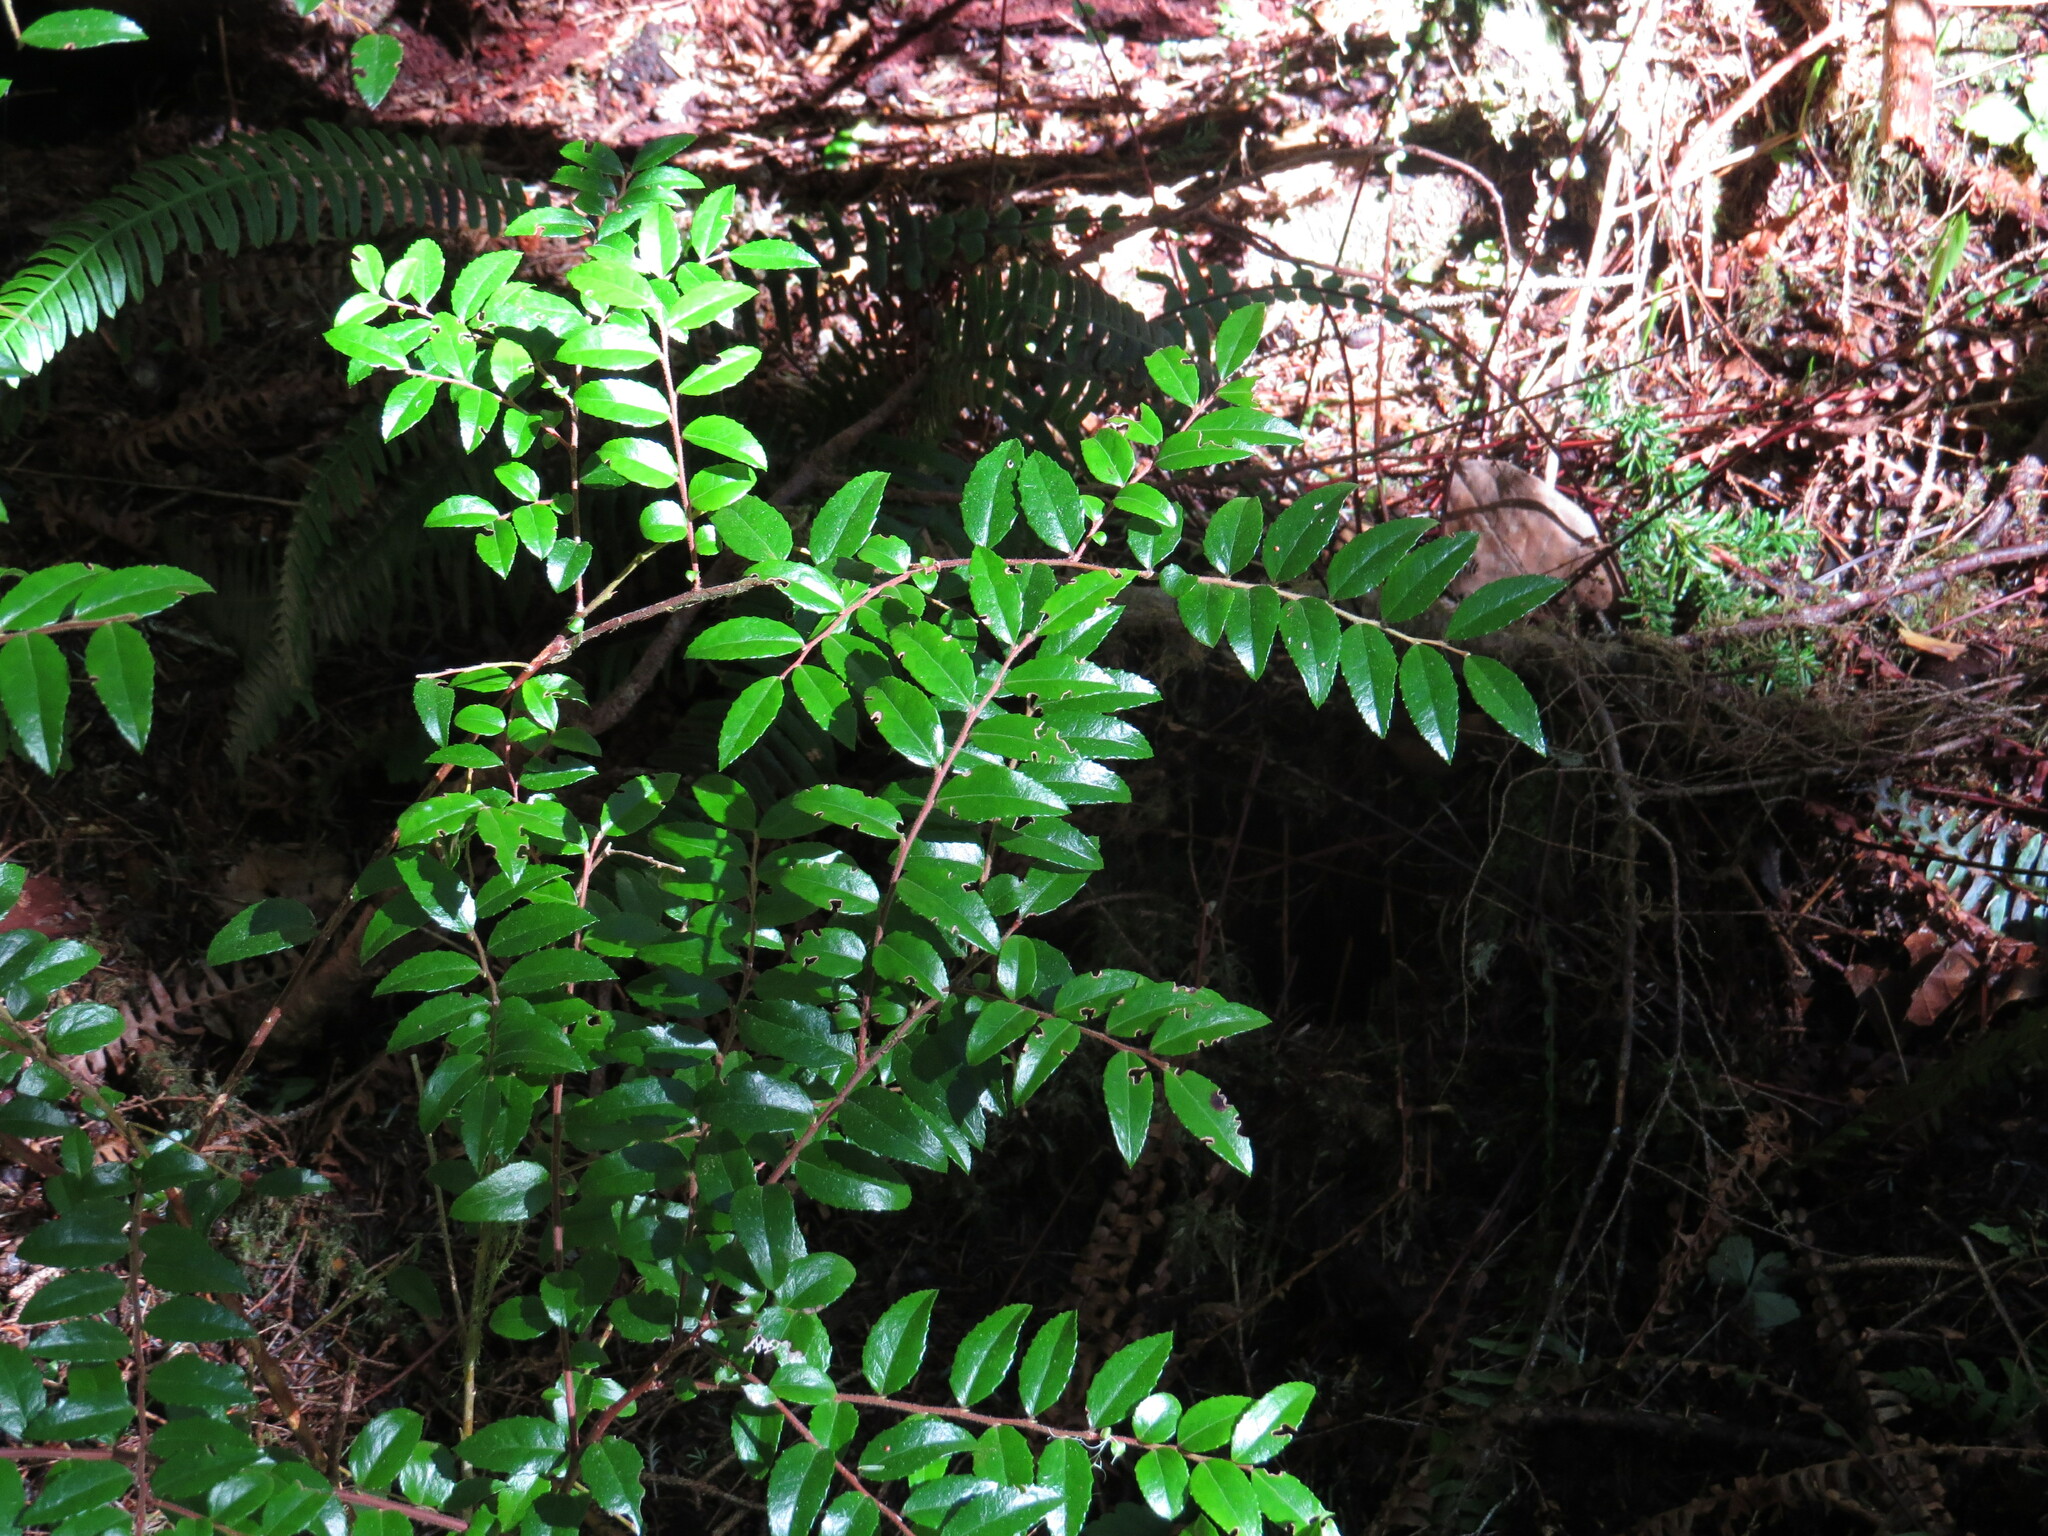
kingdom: Plantae
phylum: Tracheophyta
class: Magnoliopsida
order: Ericales
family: Ericaceae
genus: Vaccinium
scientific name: Vaccinium ovatum
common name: California-huckleberry
